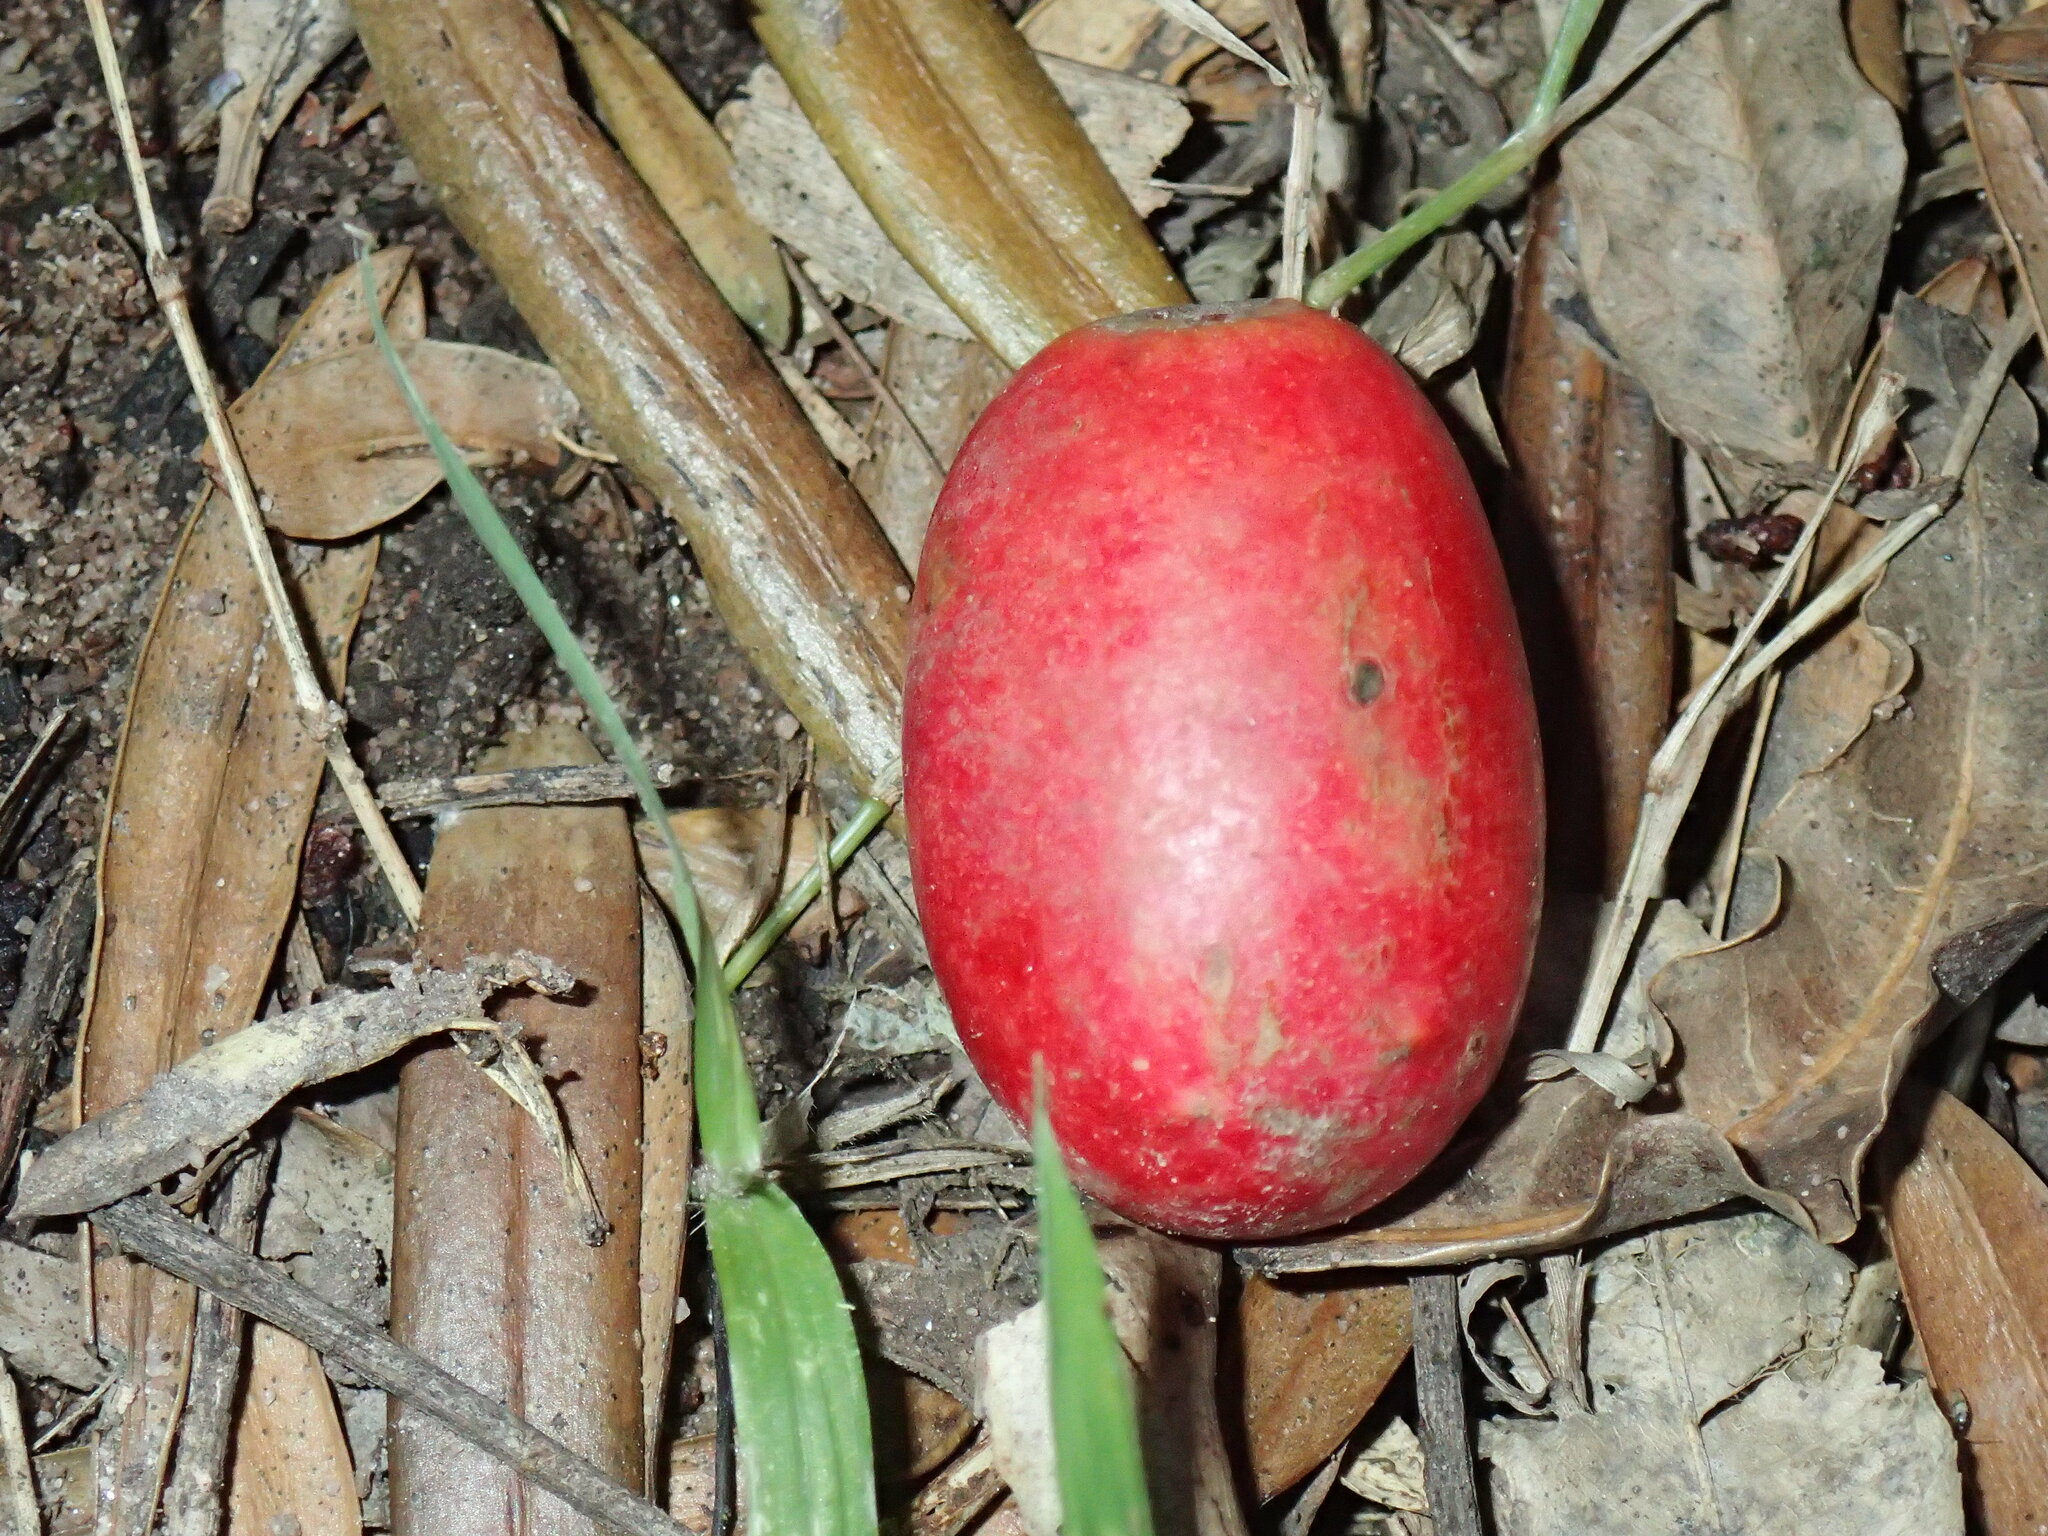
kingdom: Plantae
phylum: Tracheophyta
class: Magnoliopsida
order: Sapindales
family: Anacardiaceae
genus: Harpephyllum
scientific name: Harpephyllum caffrum
